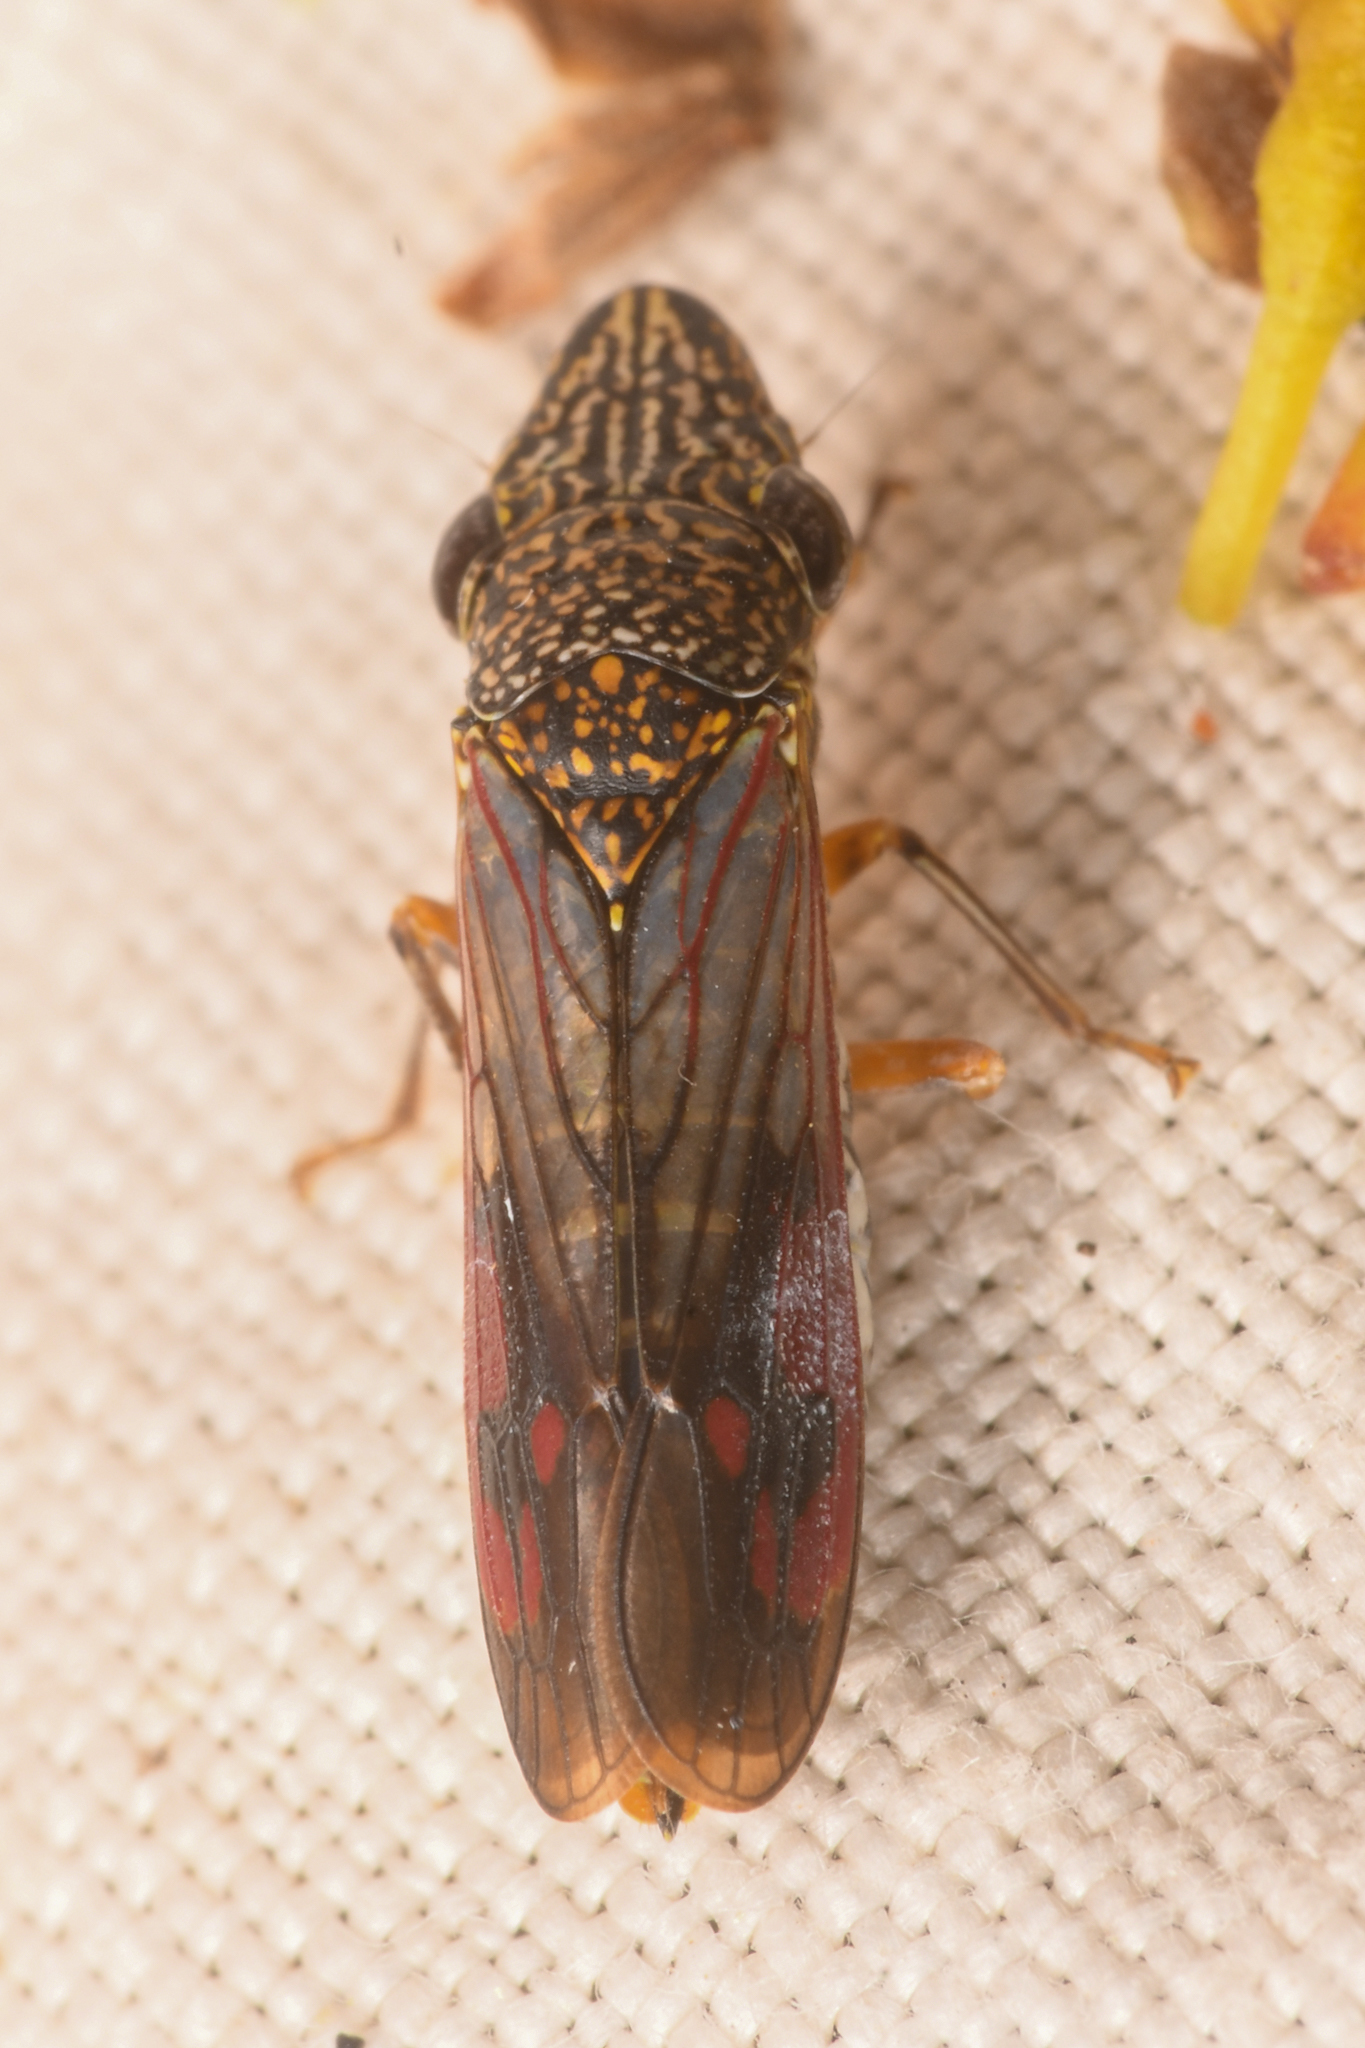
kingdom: Animalia
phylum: Arthropoda
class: Insecta
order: Hemiptera
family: Cicadellidae
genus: Homalodisca
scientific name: Homalodisca liturata
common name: Lacertate sharpshooter
